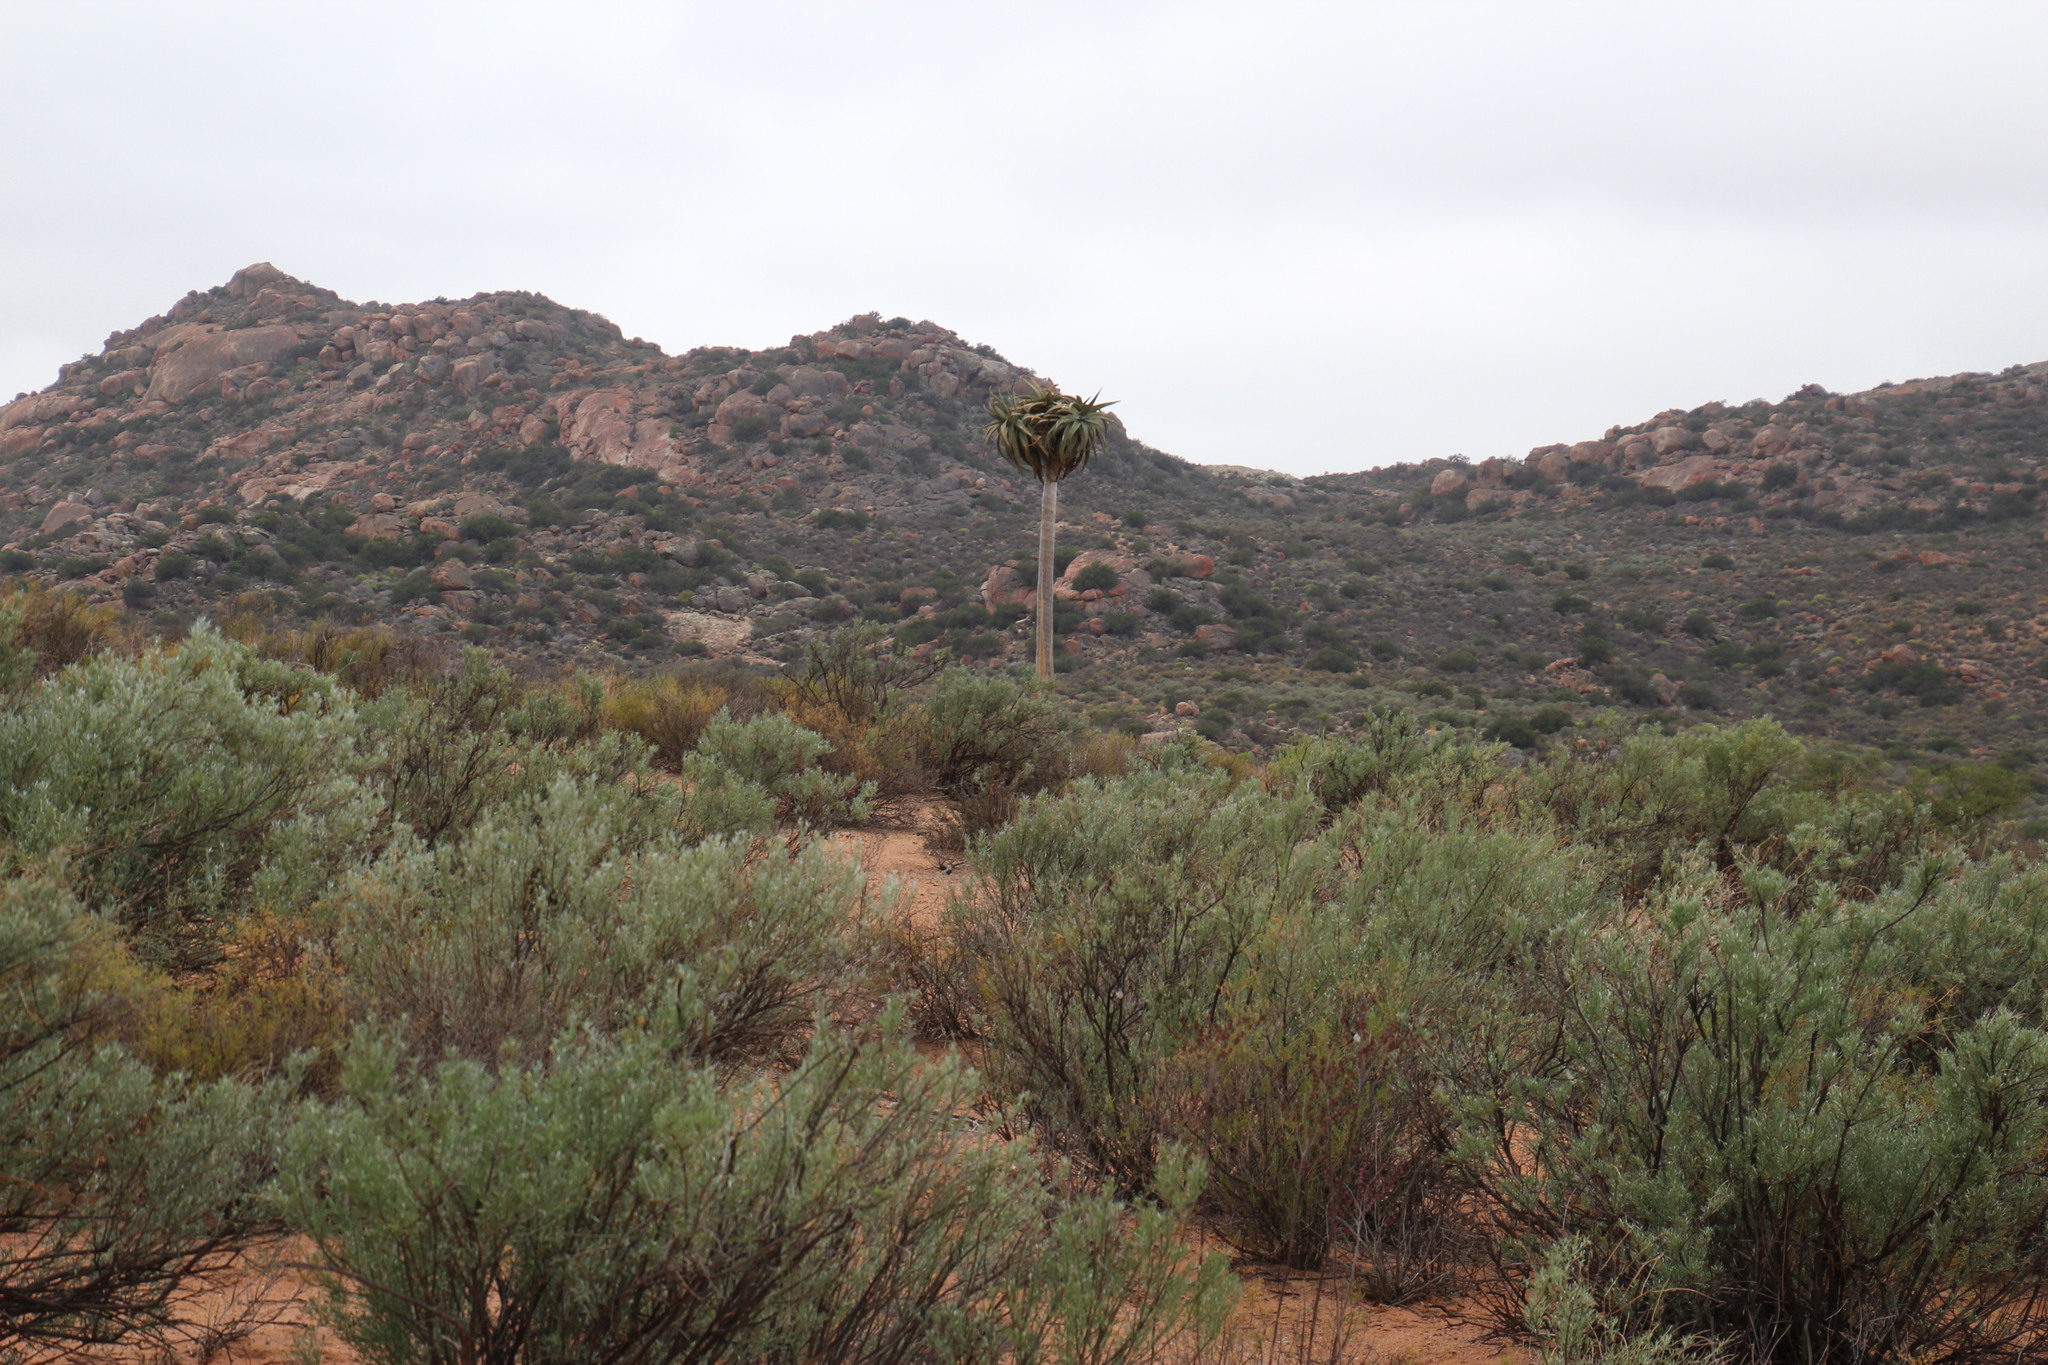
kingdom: Plantae
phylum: Tracheophyta
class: Liliopsida
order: Asparagales
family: Asphodelaceae
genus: Aloidendron
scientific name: Aloidendron dichotomum
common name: Quiver tree
